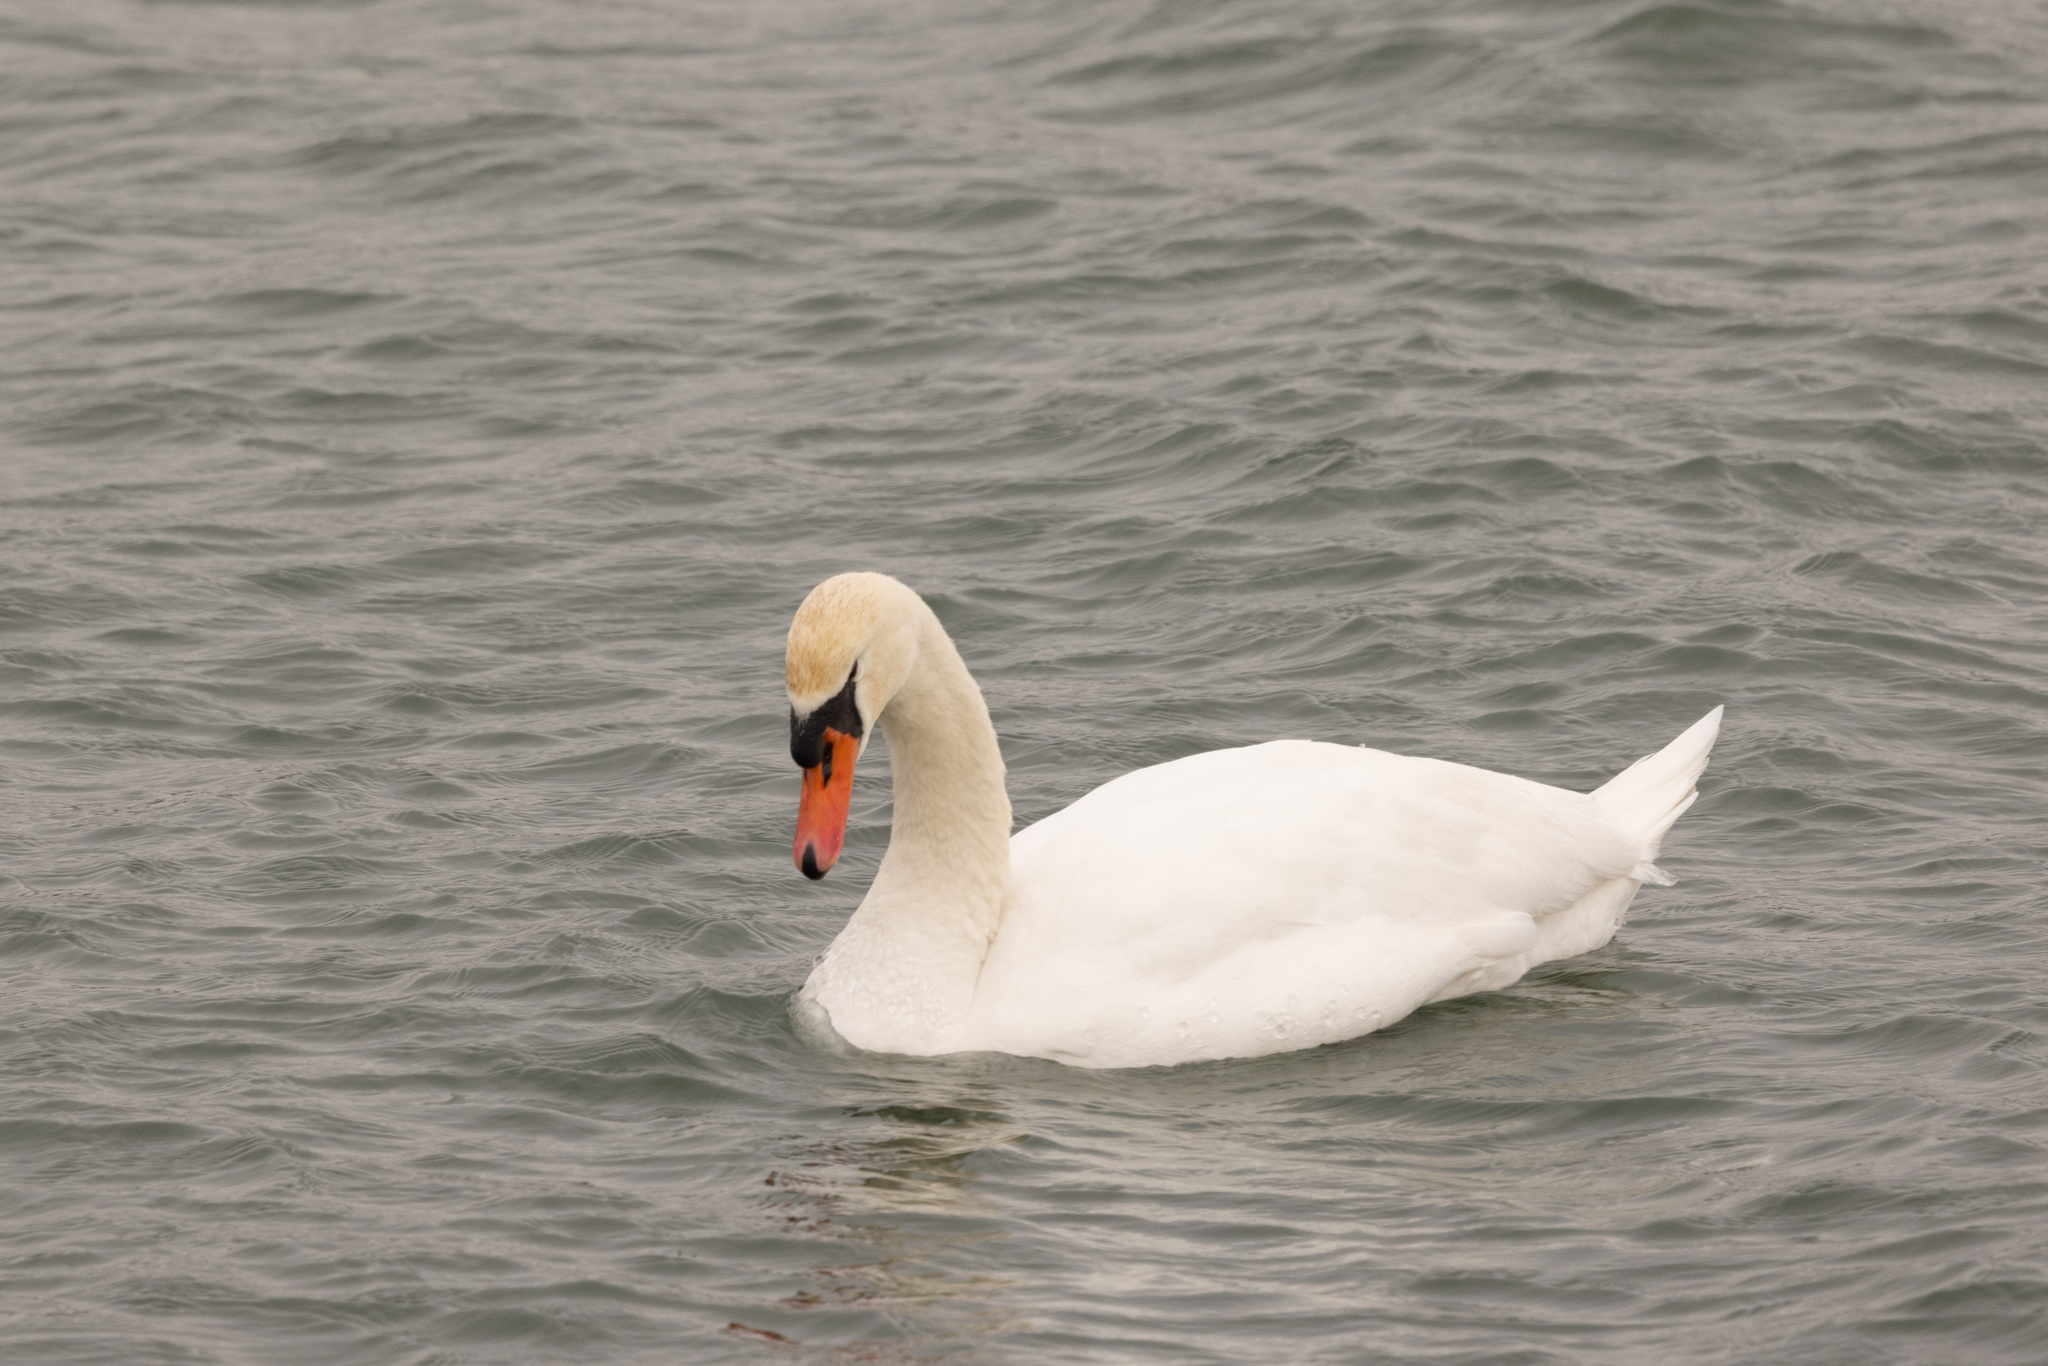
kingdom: Animalia
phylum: Chordata
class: Aves
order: Anseriformes
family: Anatidae
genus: Cygnus
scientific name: Cygnus olor
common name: Mute swan
